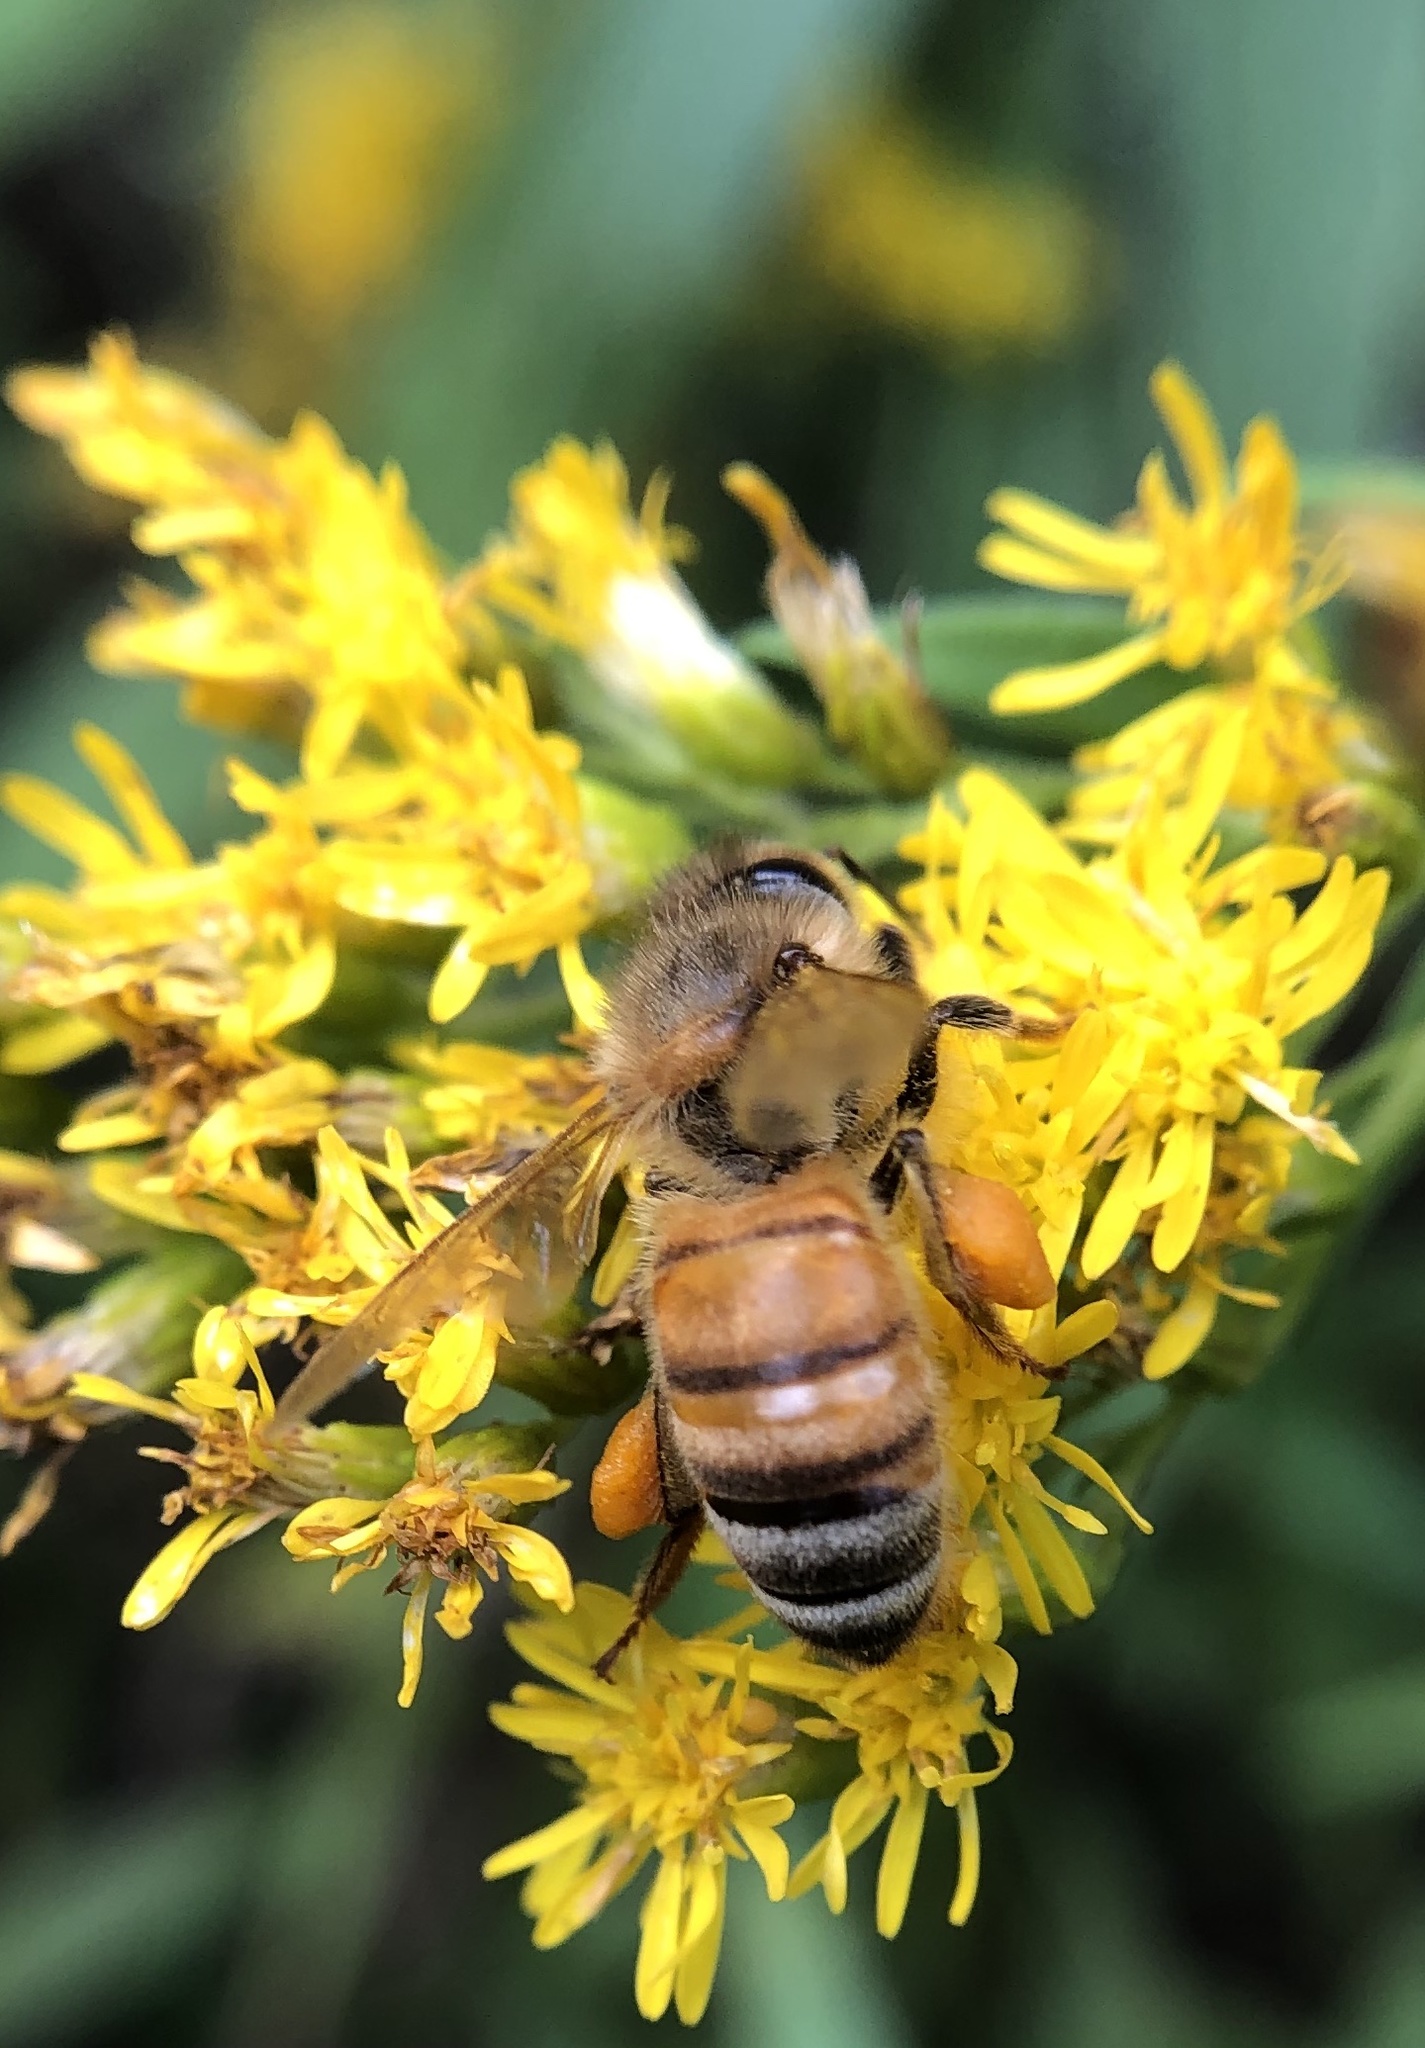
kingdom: Animalia
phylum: Arthropoda
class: Insecta
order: Hymenoptera
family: Apidae
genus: Apis
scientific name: Apis mellifera
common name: Honey bee
